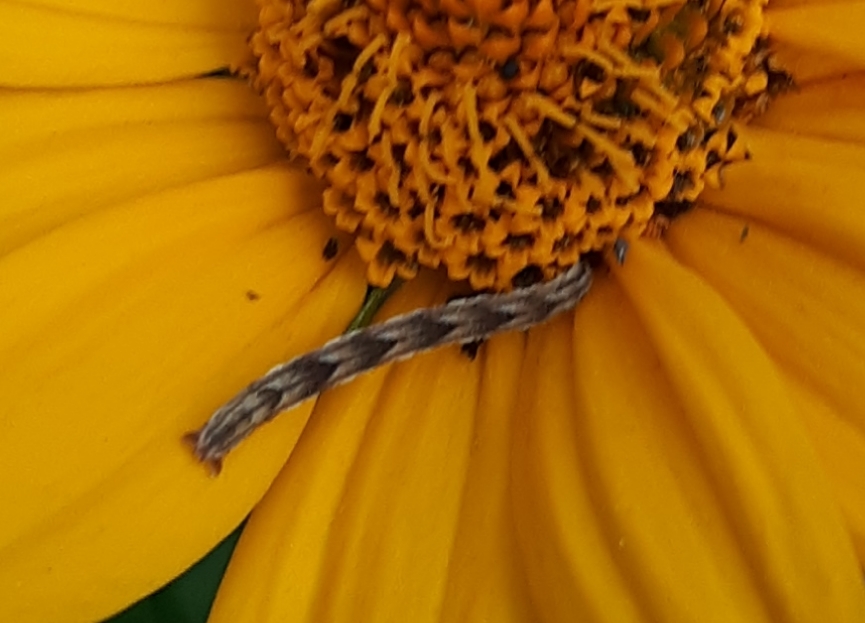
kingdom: Animalia
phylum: Arthropoda
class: Insecta
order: Lepidoptera
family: Geometridae
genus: Eupithecia
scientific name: Eupithecia miserulata
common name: Common eupithecia
